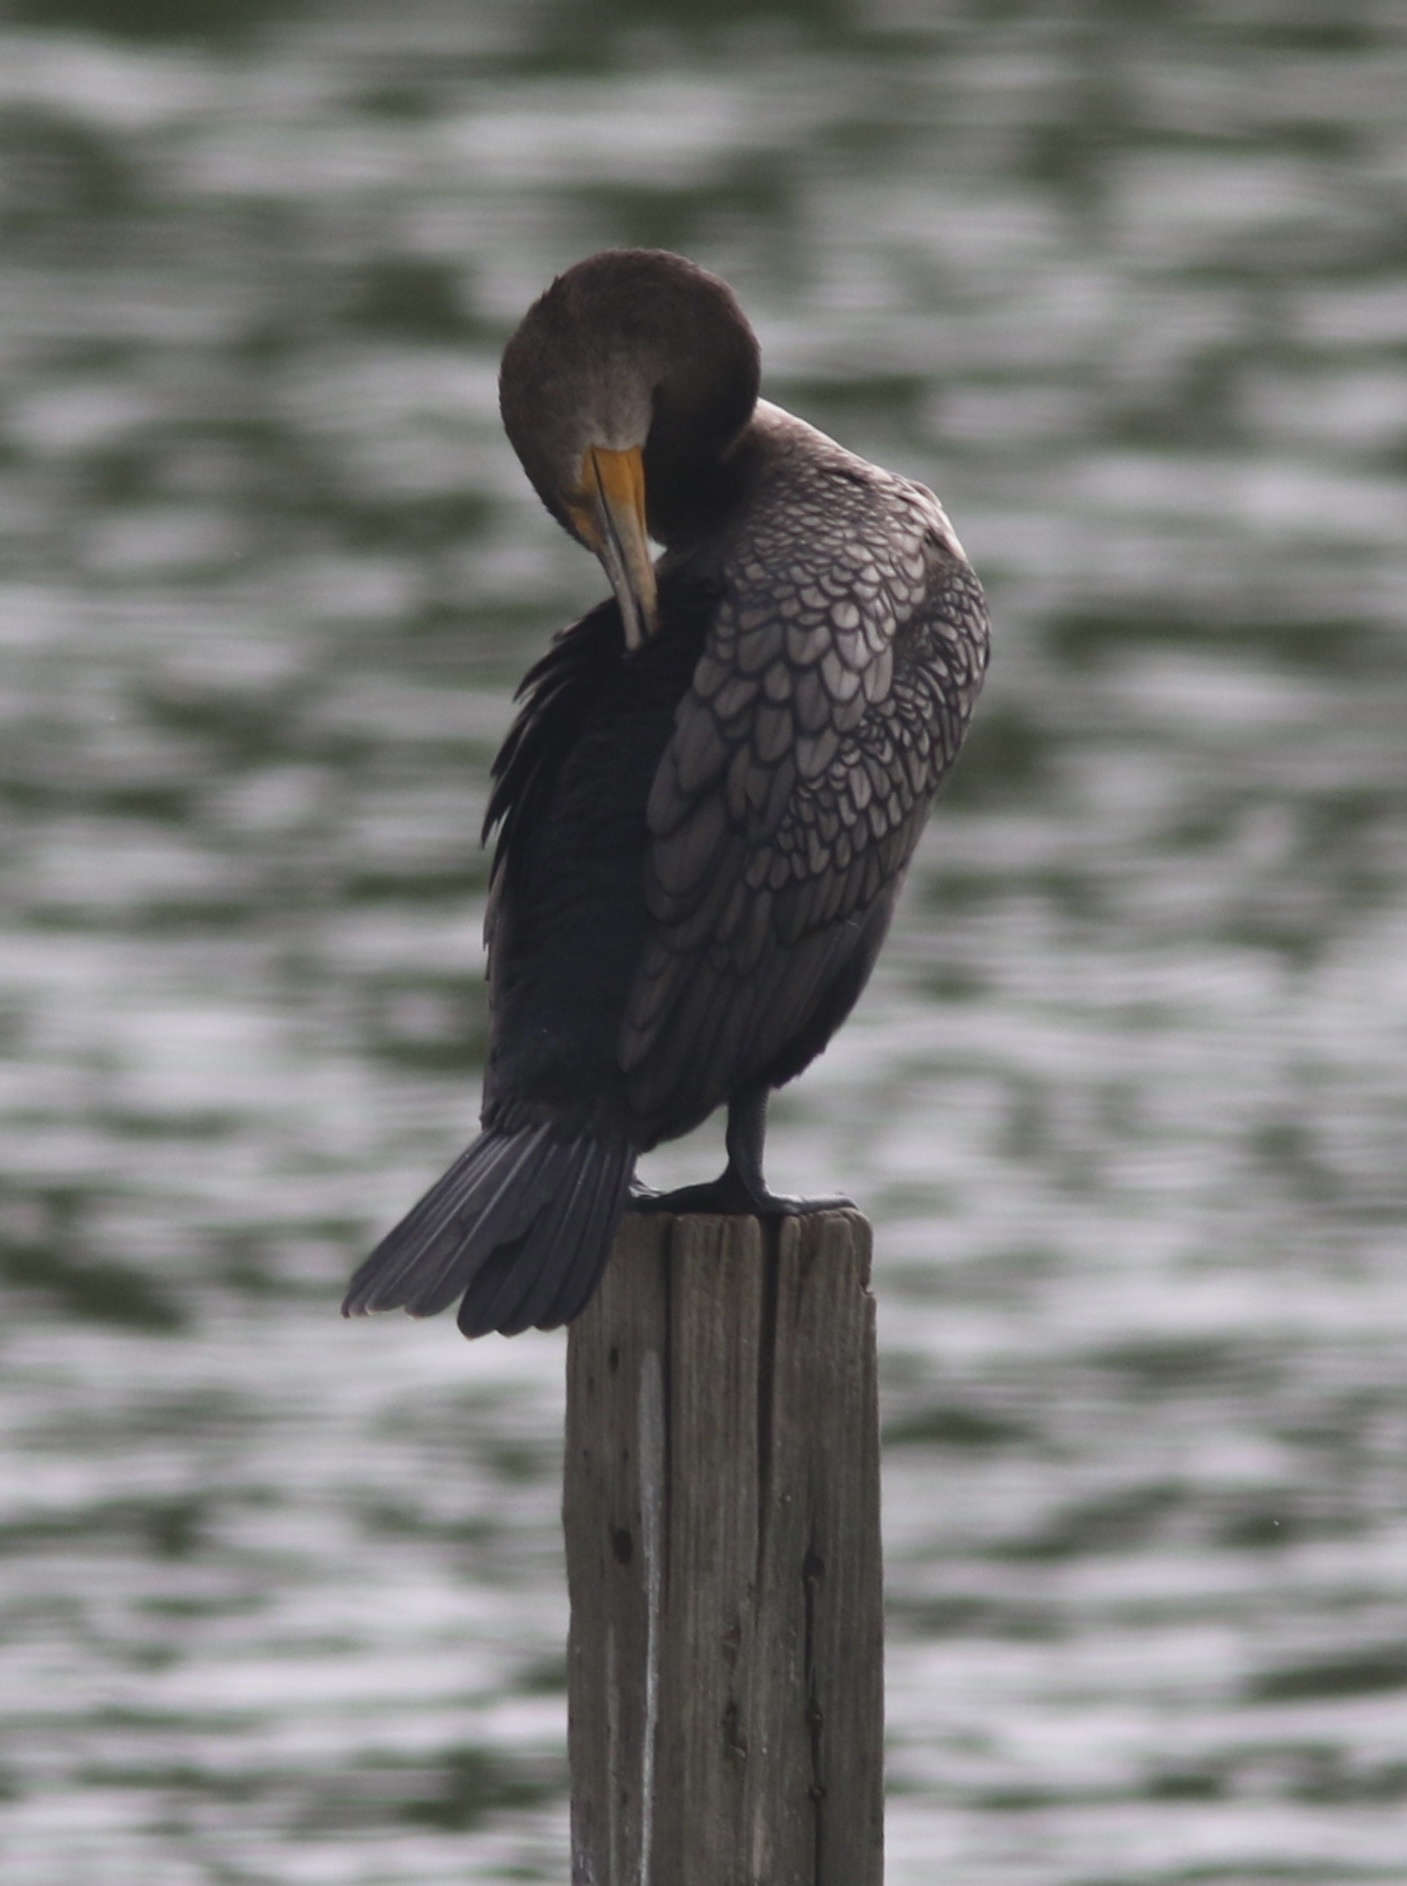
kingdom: Animalia
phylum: Chordata
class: Aves
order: Suliformes
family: Phalacrocoracidae
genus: Phalacrocorax
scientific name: Phalacrocorax auritus
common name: Double-crested cormorant
